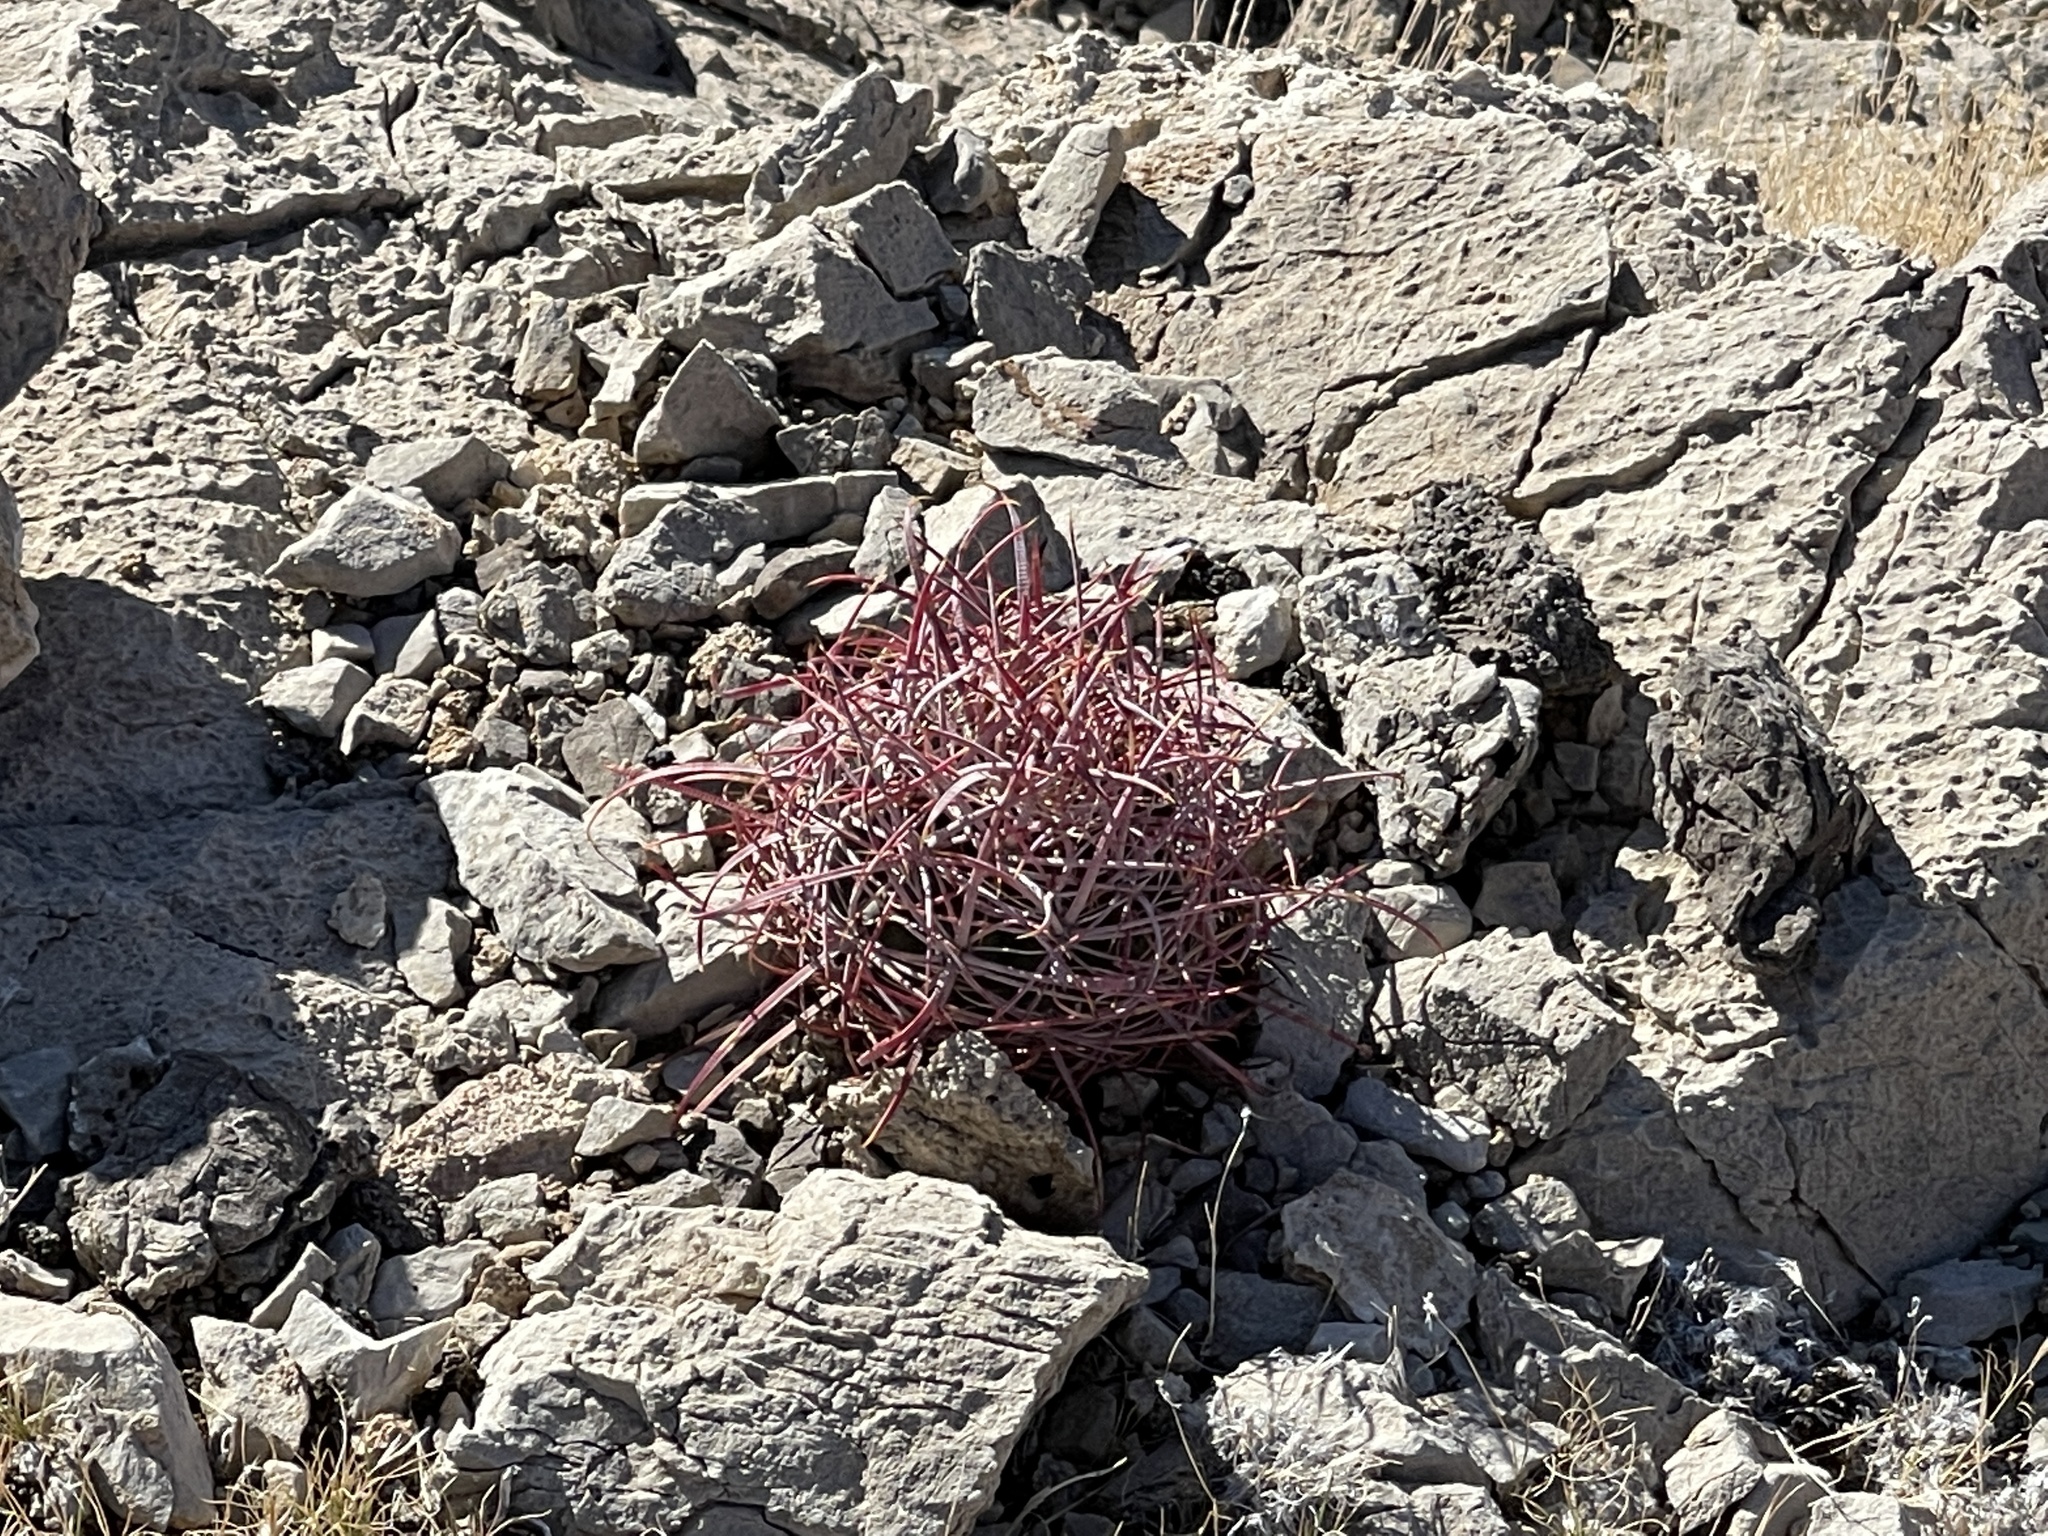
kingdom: Plantae
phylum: Tracheophyta
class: Magnoliopsida
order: Caryophyllales
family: Cactaceae
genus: Echinocactus
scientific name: Echinocactus polycephalus
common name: Cottontop cactus
